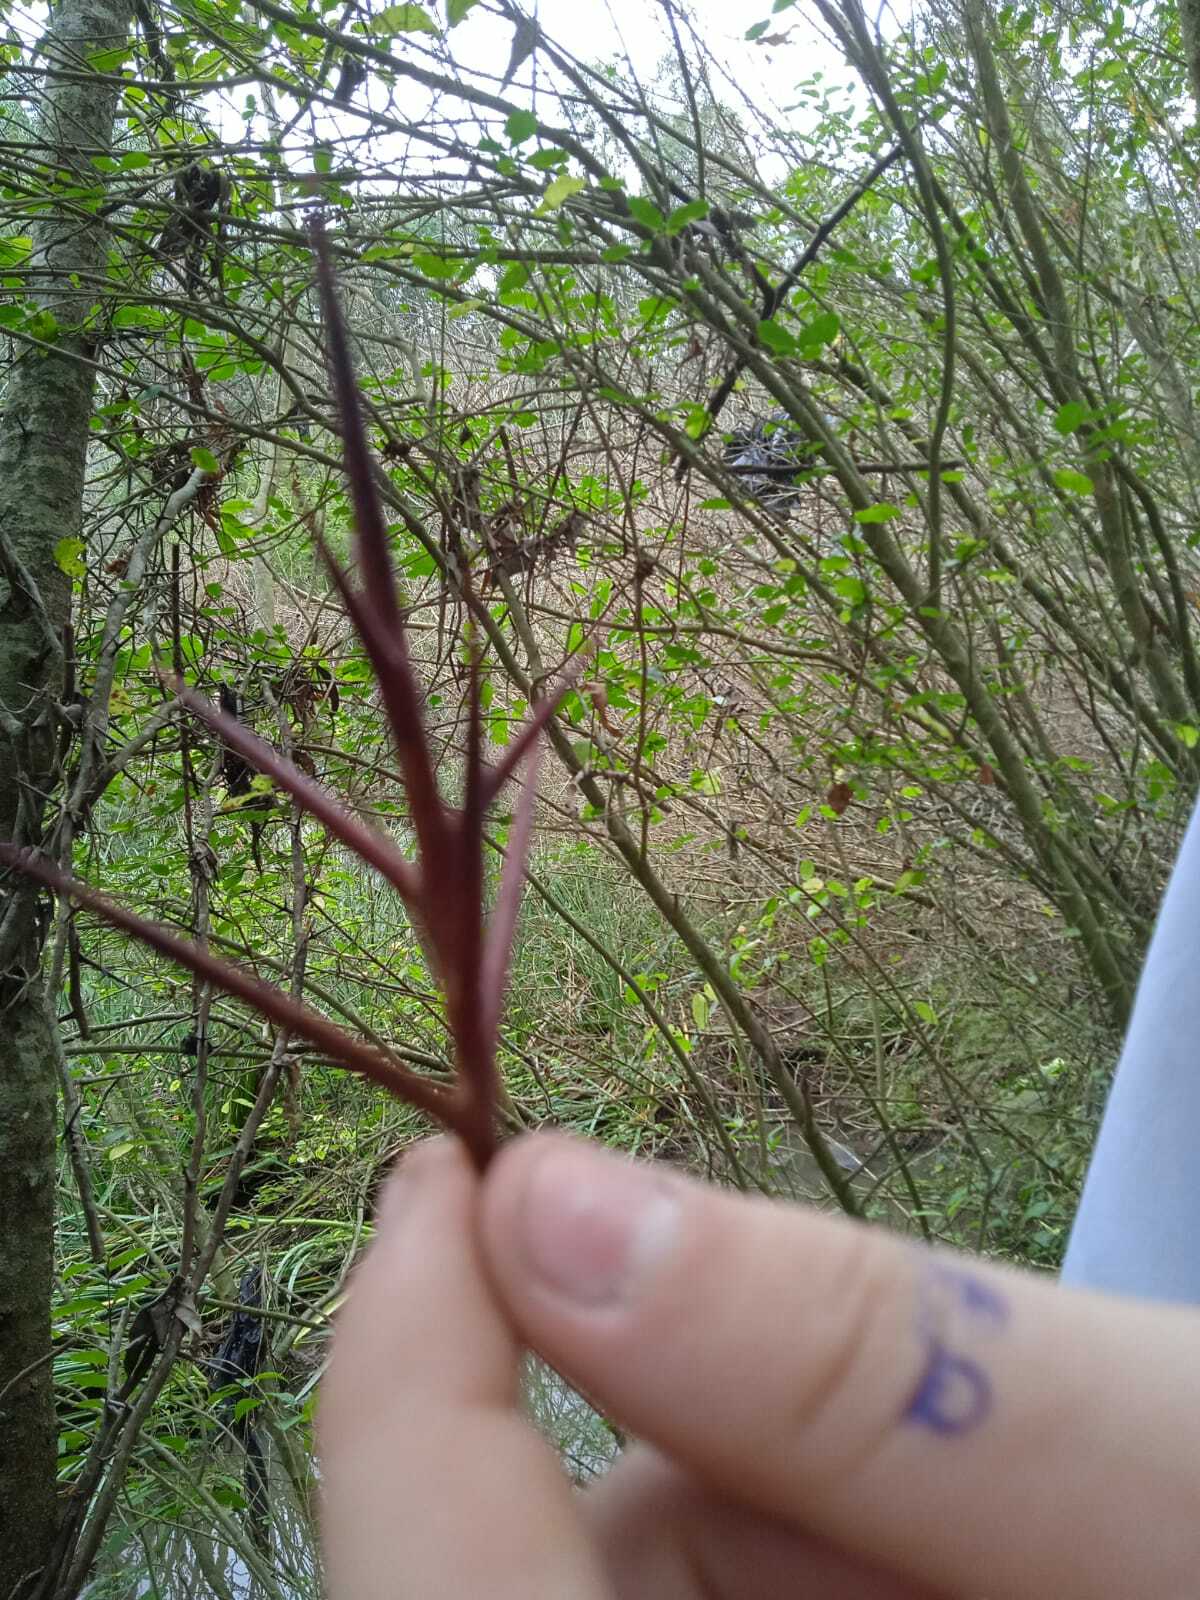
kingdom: Plantae
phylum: Tracheophyta
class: Magnoliopsida
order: Fabales
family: Fabaceae
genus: Gleditsia
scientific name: Gleditsia triacanthos
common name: Common honeylocust
